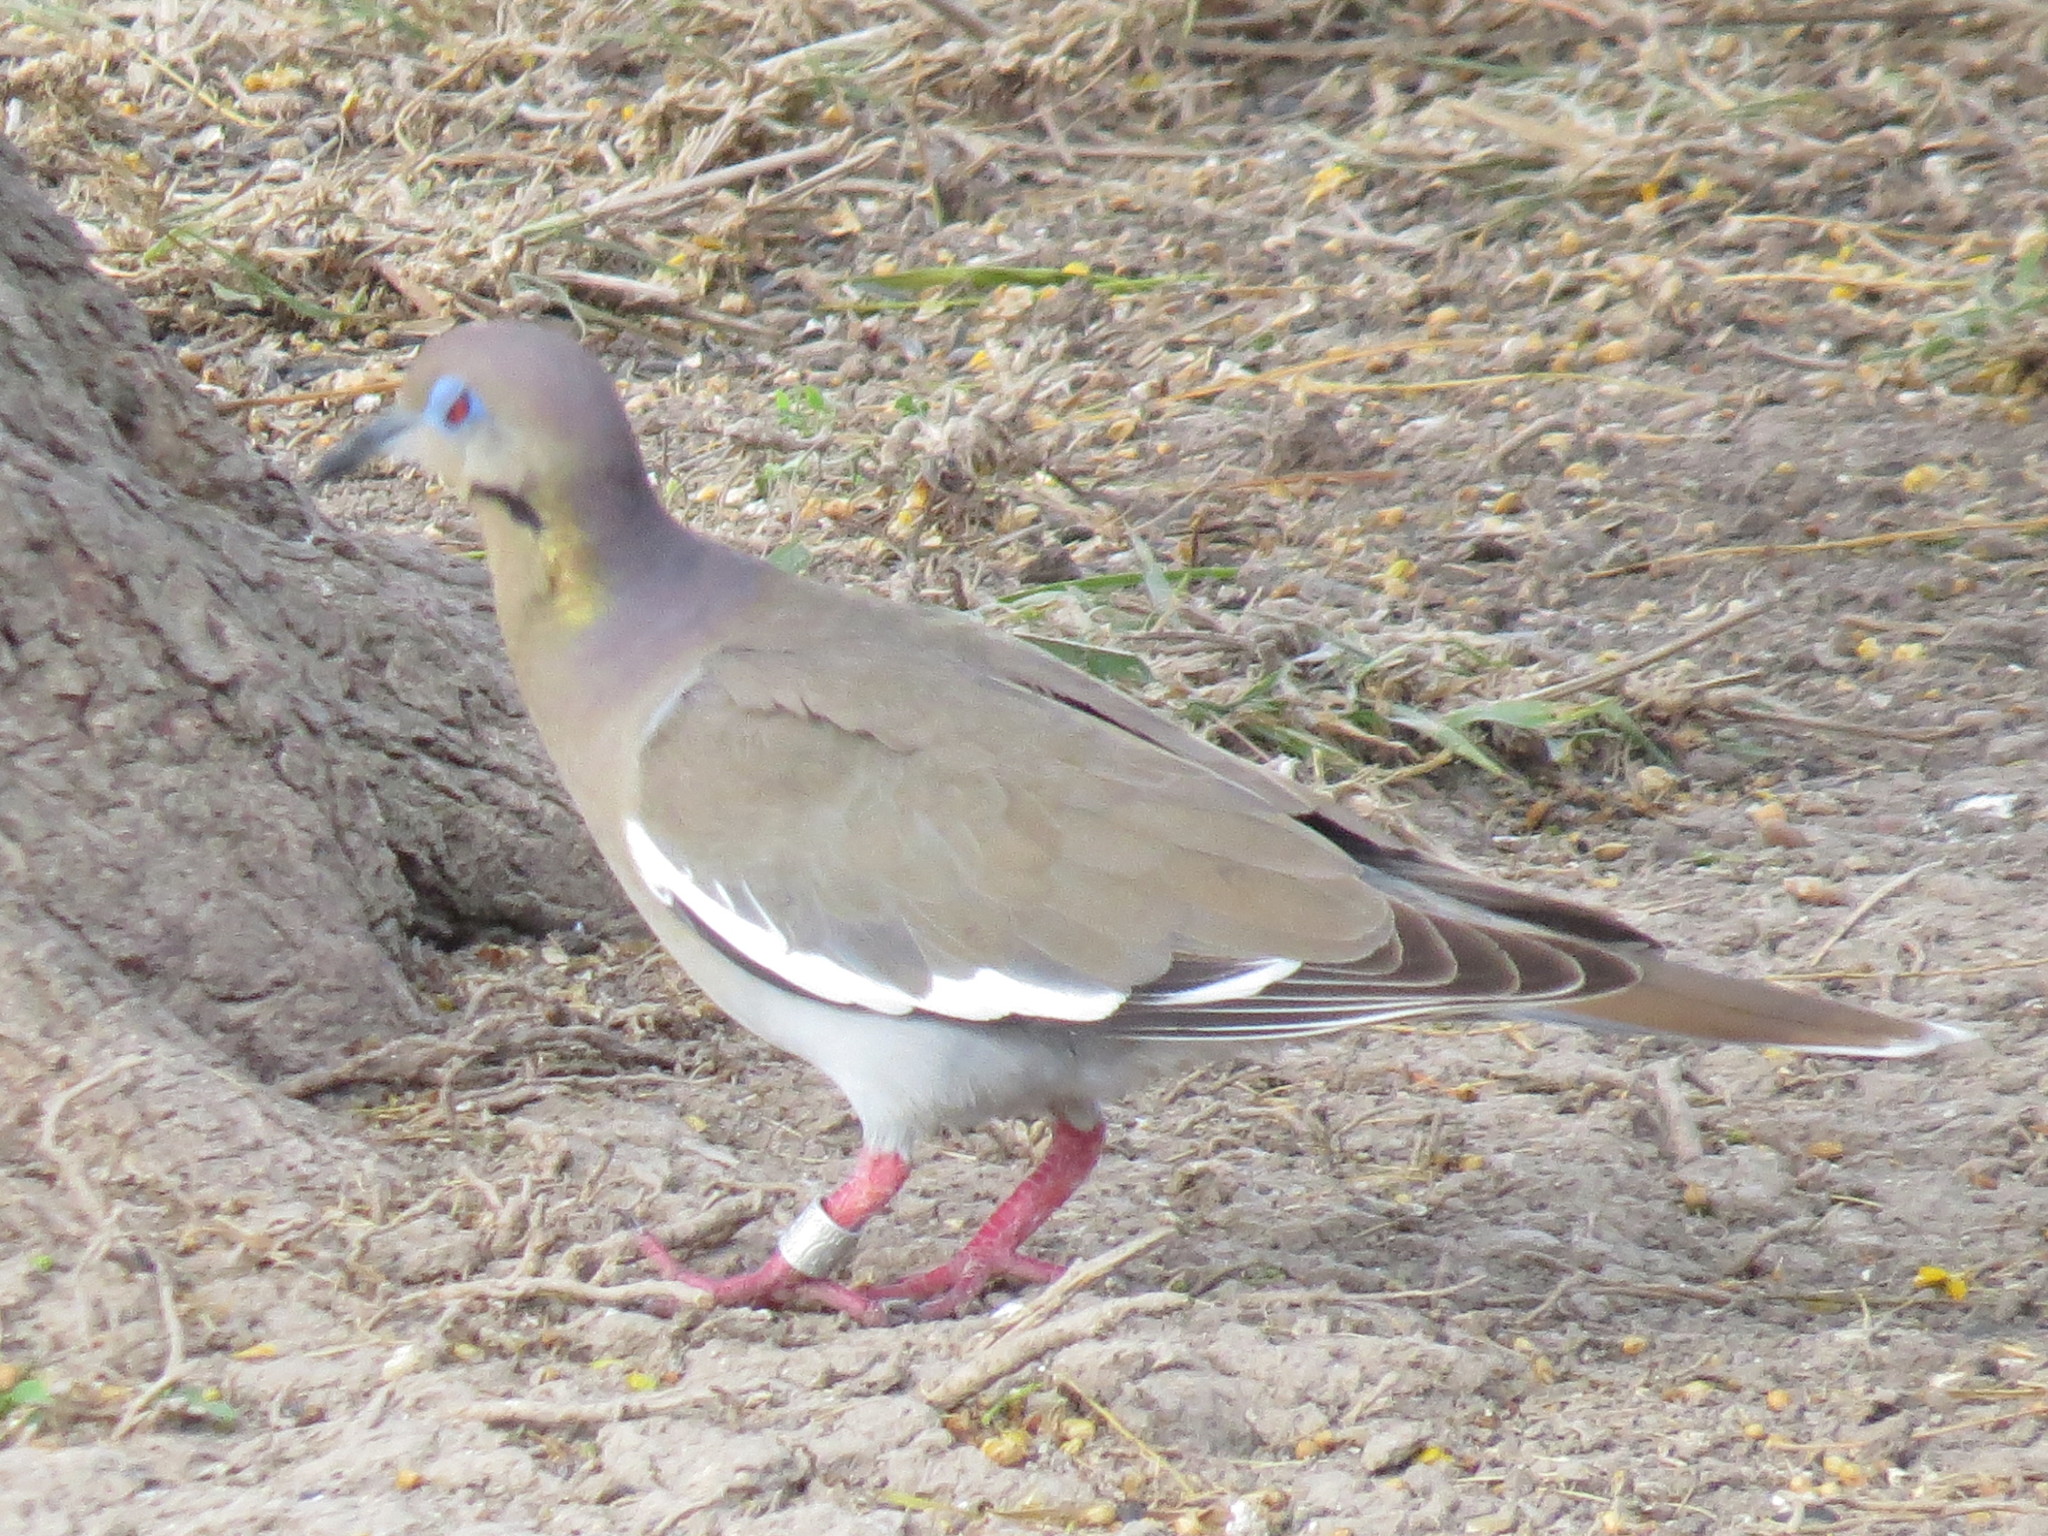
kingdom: Animalia
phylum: Chordata
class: Aves
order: Columbiformes
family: Columbidae
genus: Zenaida
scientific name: Zenaida asiatica
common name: White-winged dove
